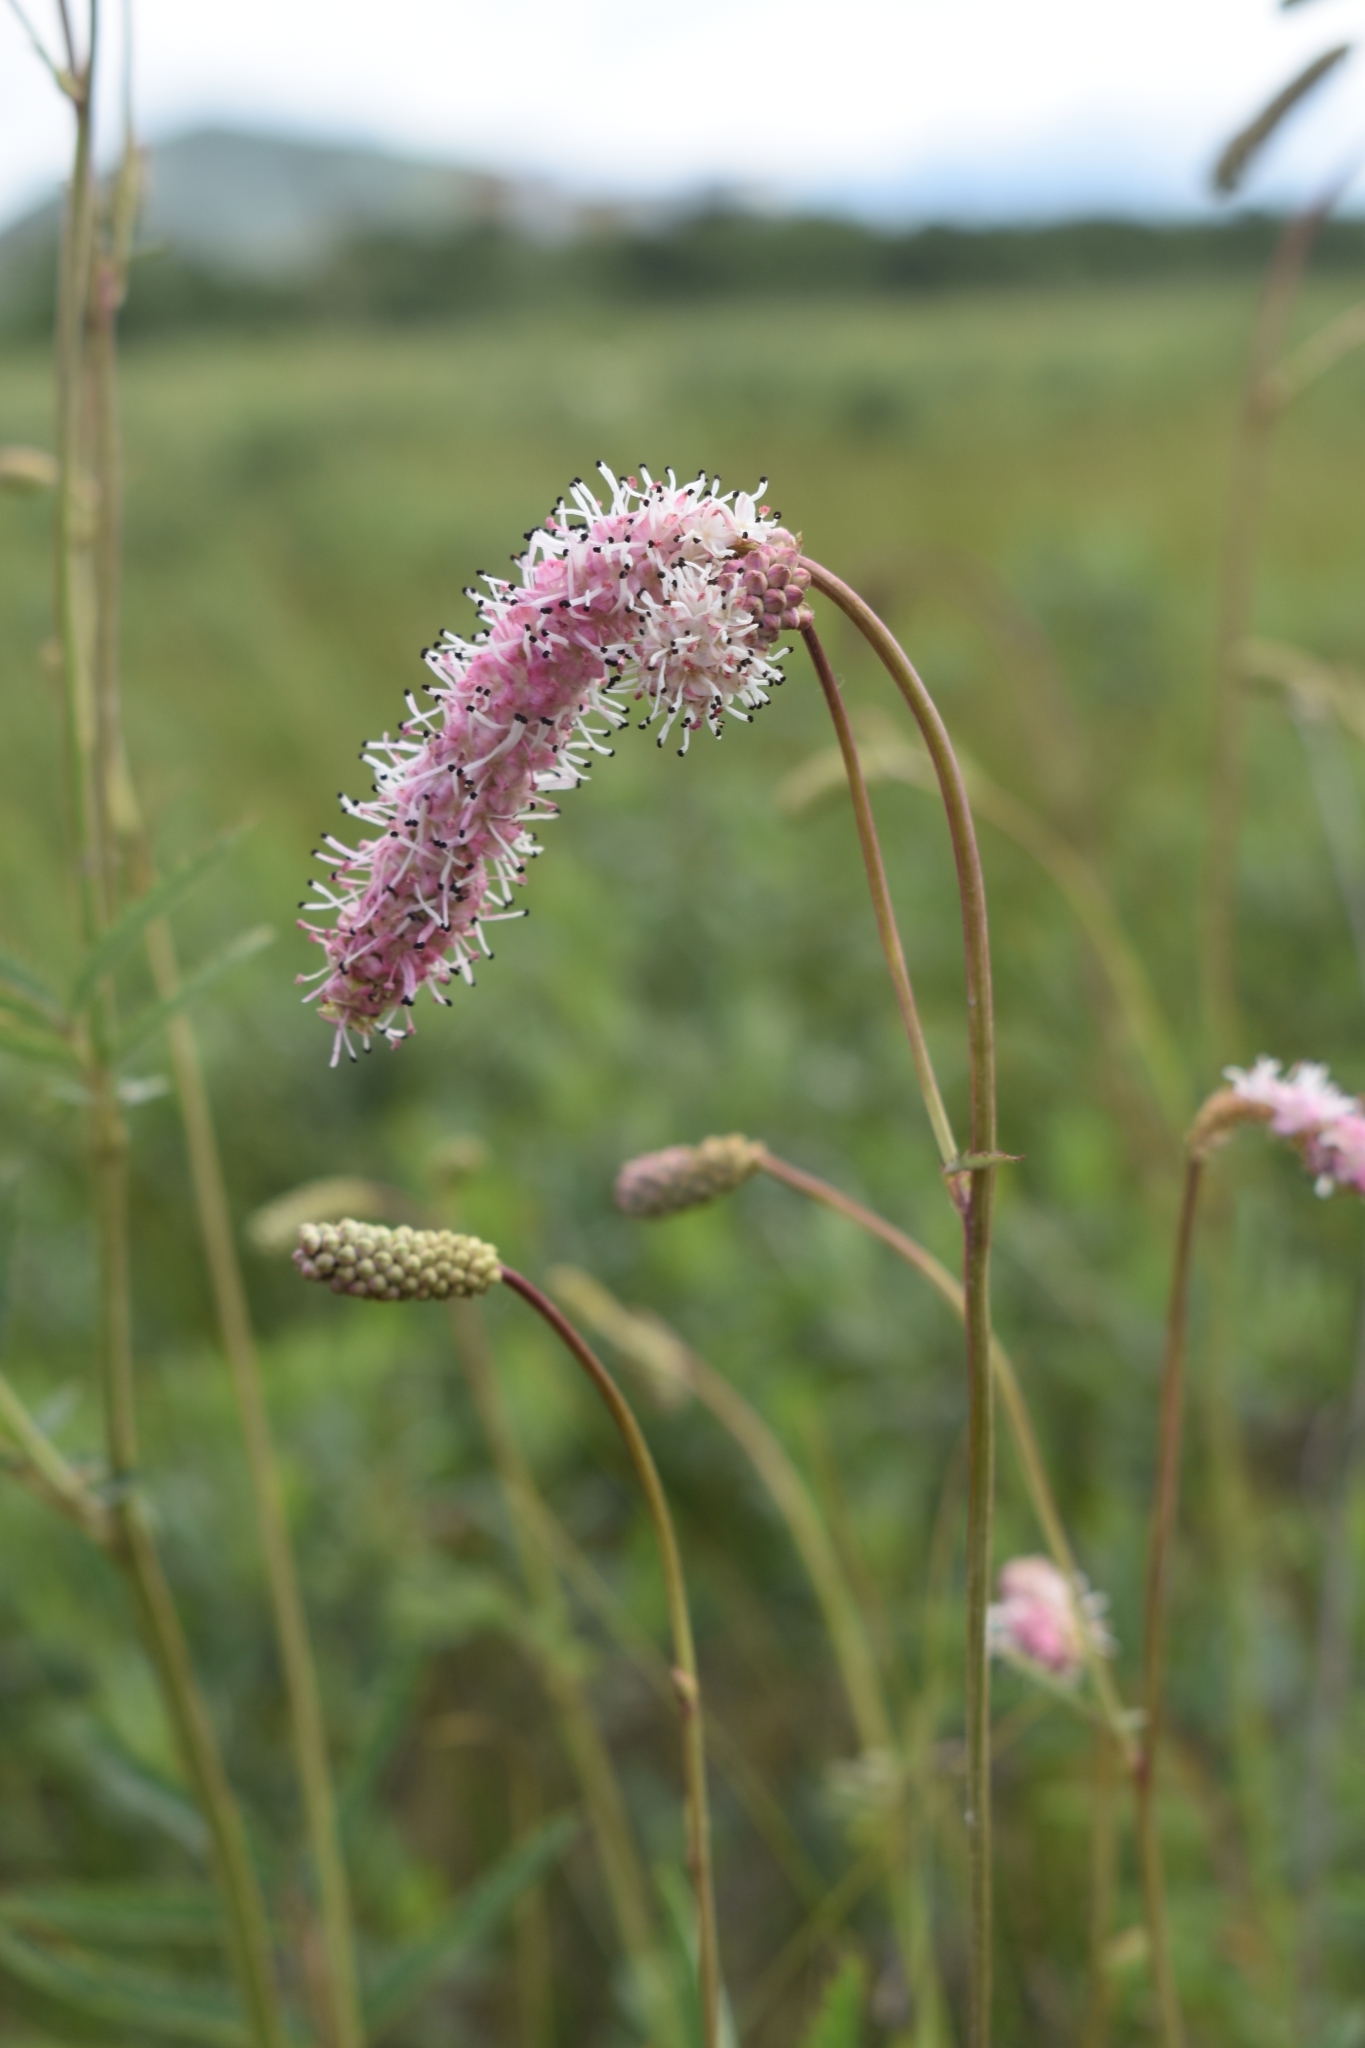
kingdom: Plantae
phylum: Tracheophyta
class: Magnoliopsida
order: Rosales
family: Rosaceae
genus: Poterium
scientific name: Poterium tenuifolium
